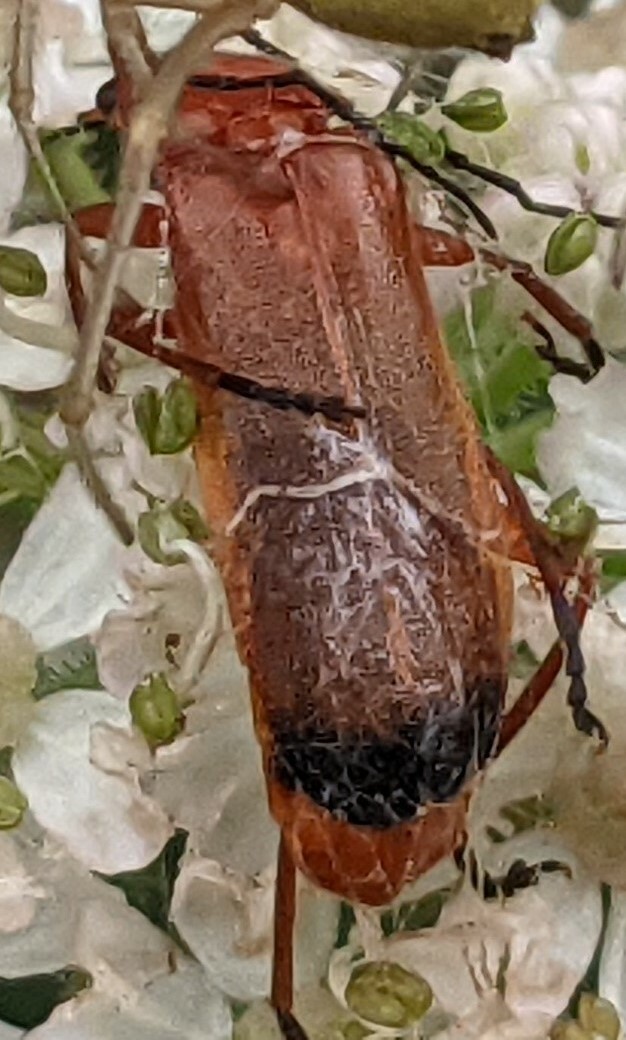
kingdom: Animalia
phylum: Arthropoda
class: Insecta
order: Coleoptera
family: Cantharidae
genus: Rhagonycha
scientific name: Rhagonycha fulva
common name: Common red soldier beetle
